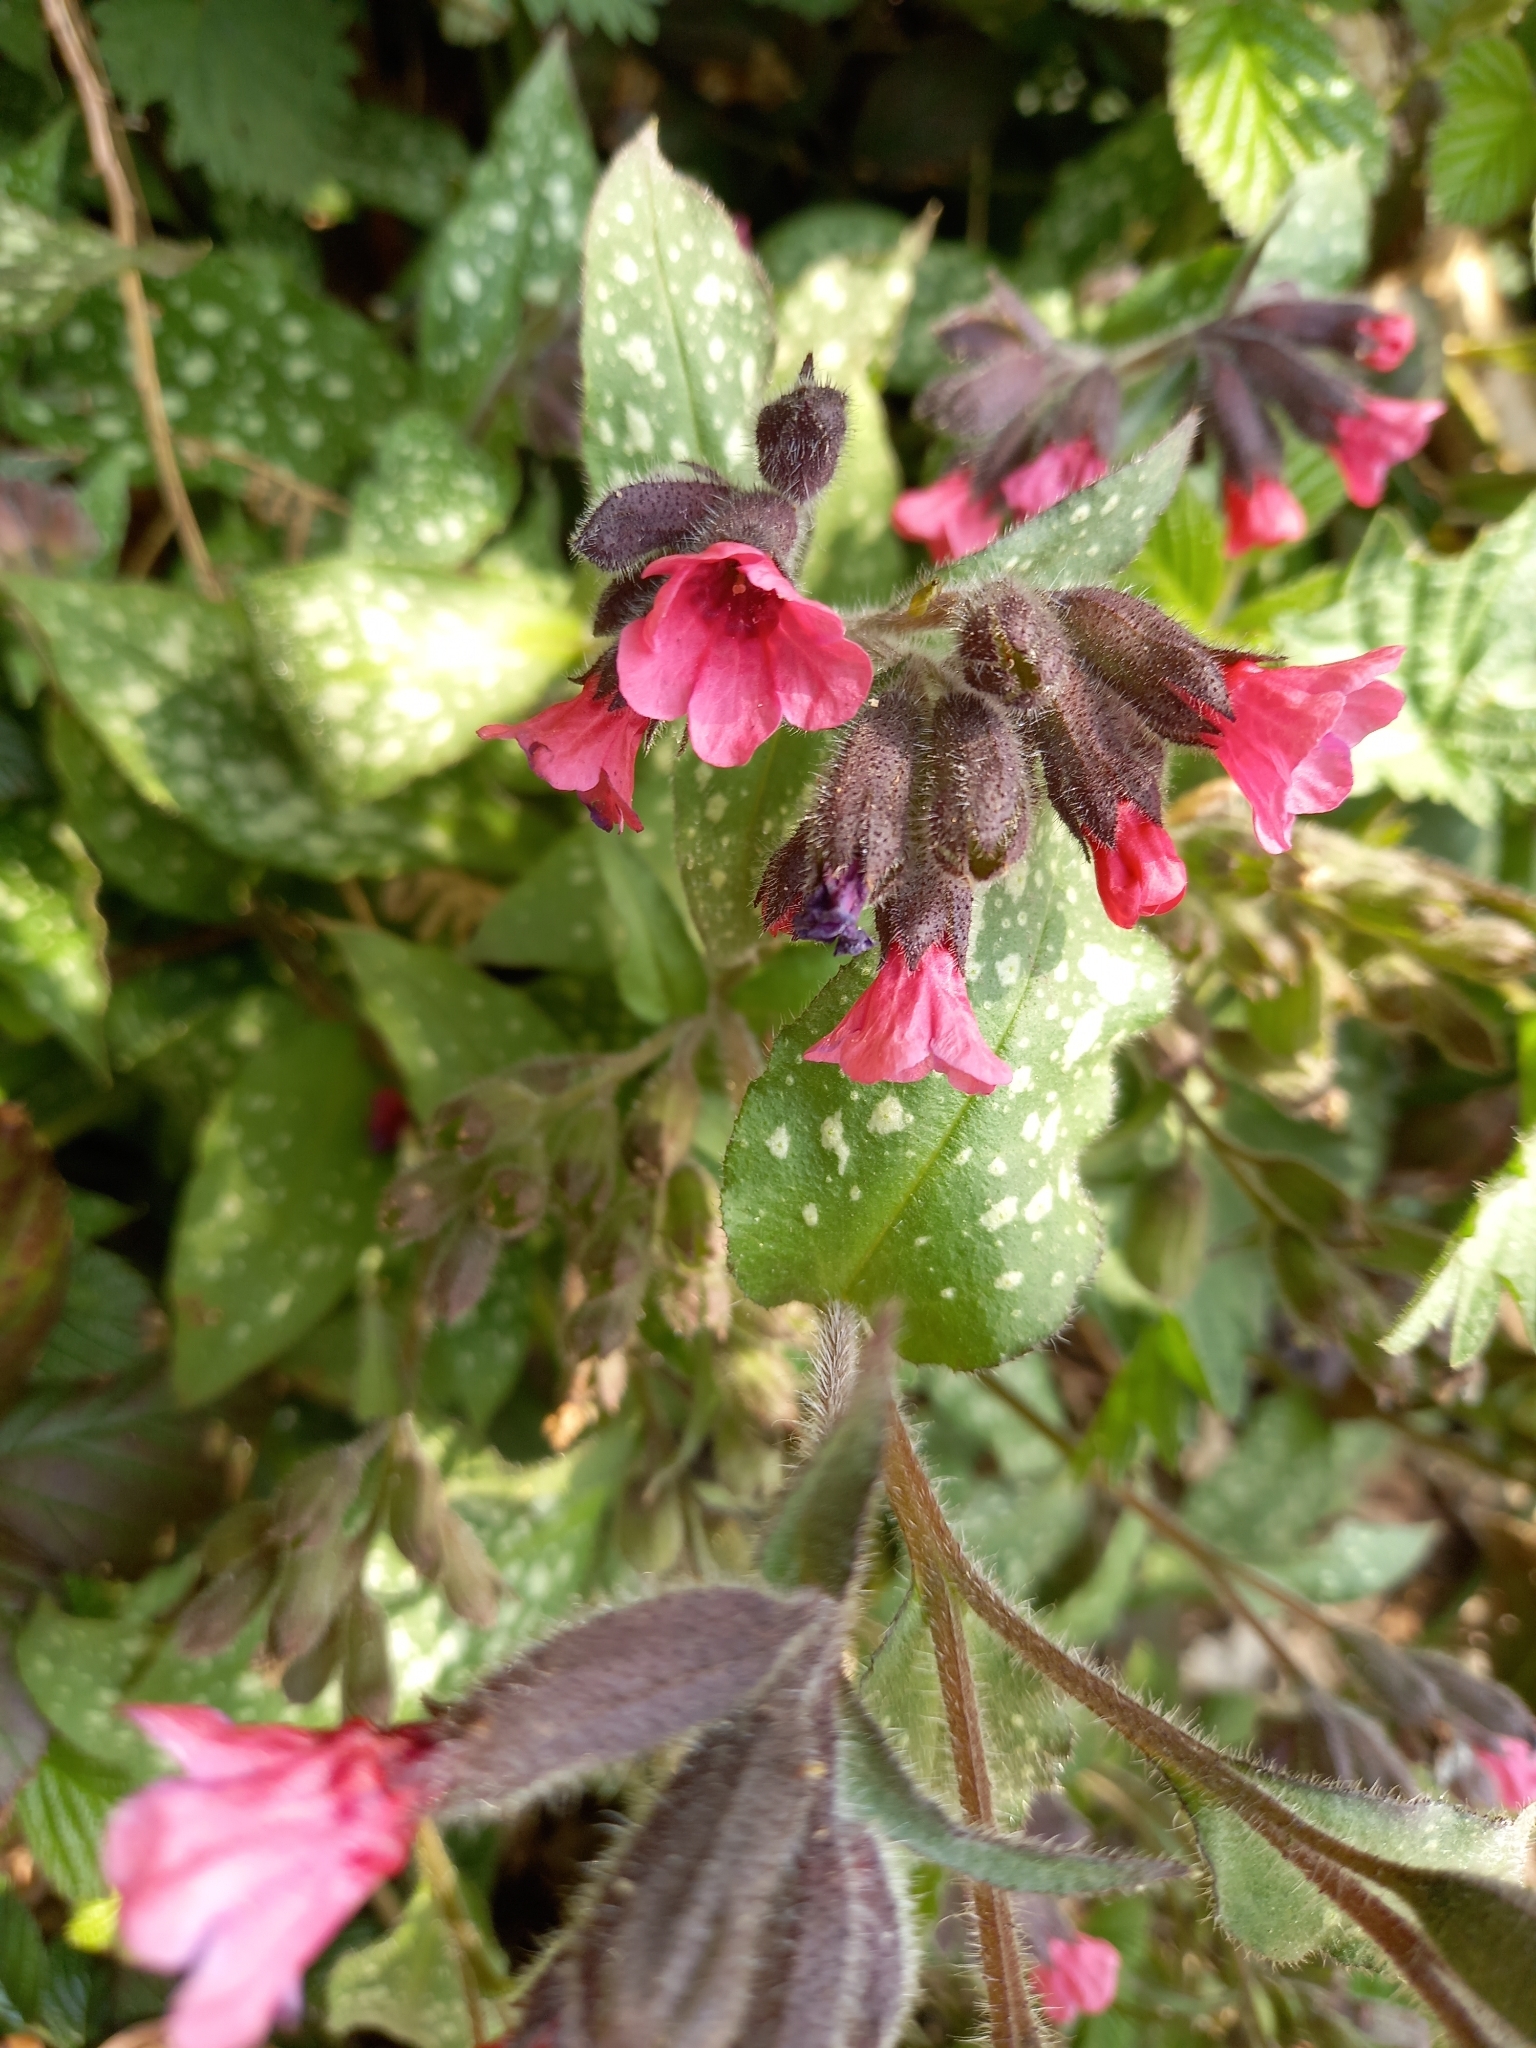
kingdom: Plantae
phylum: Tracheophyta
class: Magnoliopsida
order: Boraginales
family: Boraginaceae
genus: Pulmonaria
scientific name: Pulmonaria officinalis
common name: Lungwort
